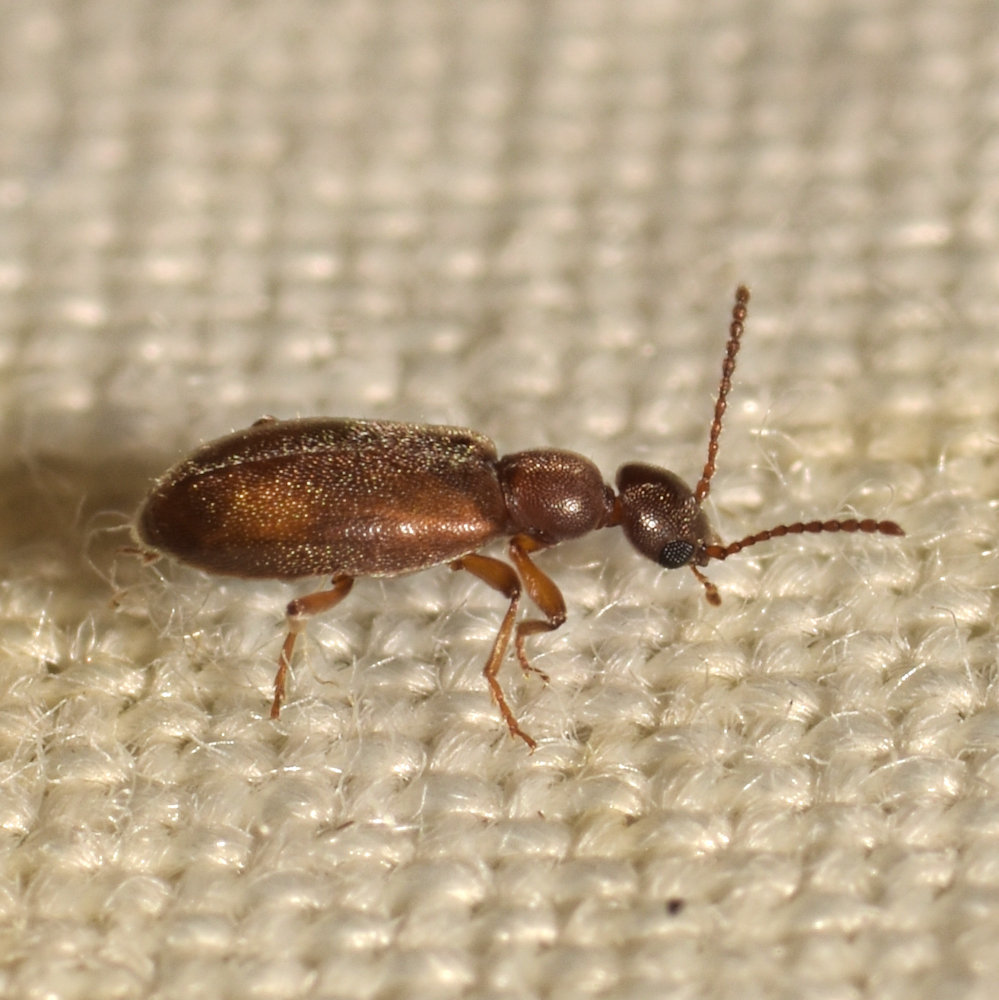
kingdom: Animalia
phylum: Arthropoda
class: Insecta
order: Coleoptera
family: Anthicidae
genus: Anthicus
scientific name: Anthicus cervinus
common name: Cloudy flower beetle
